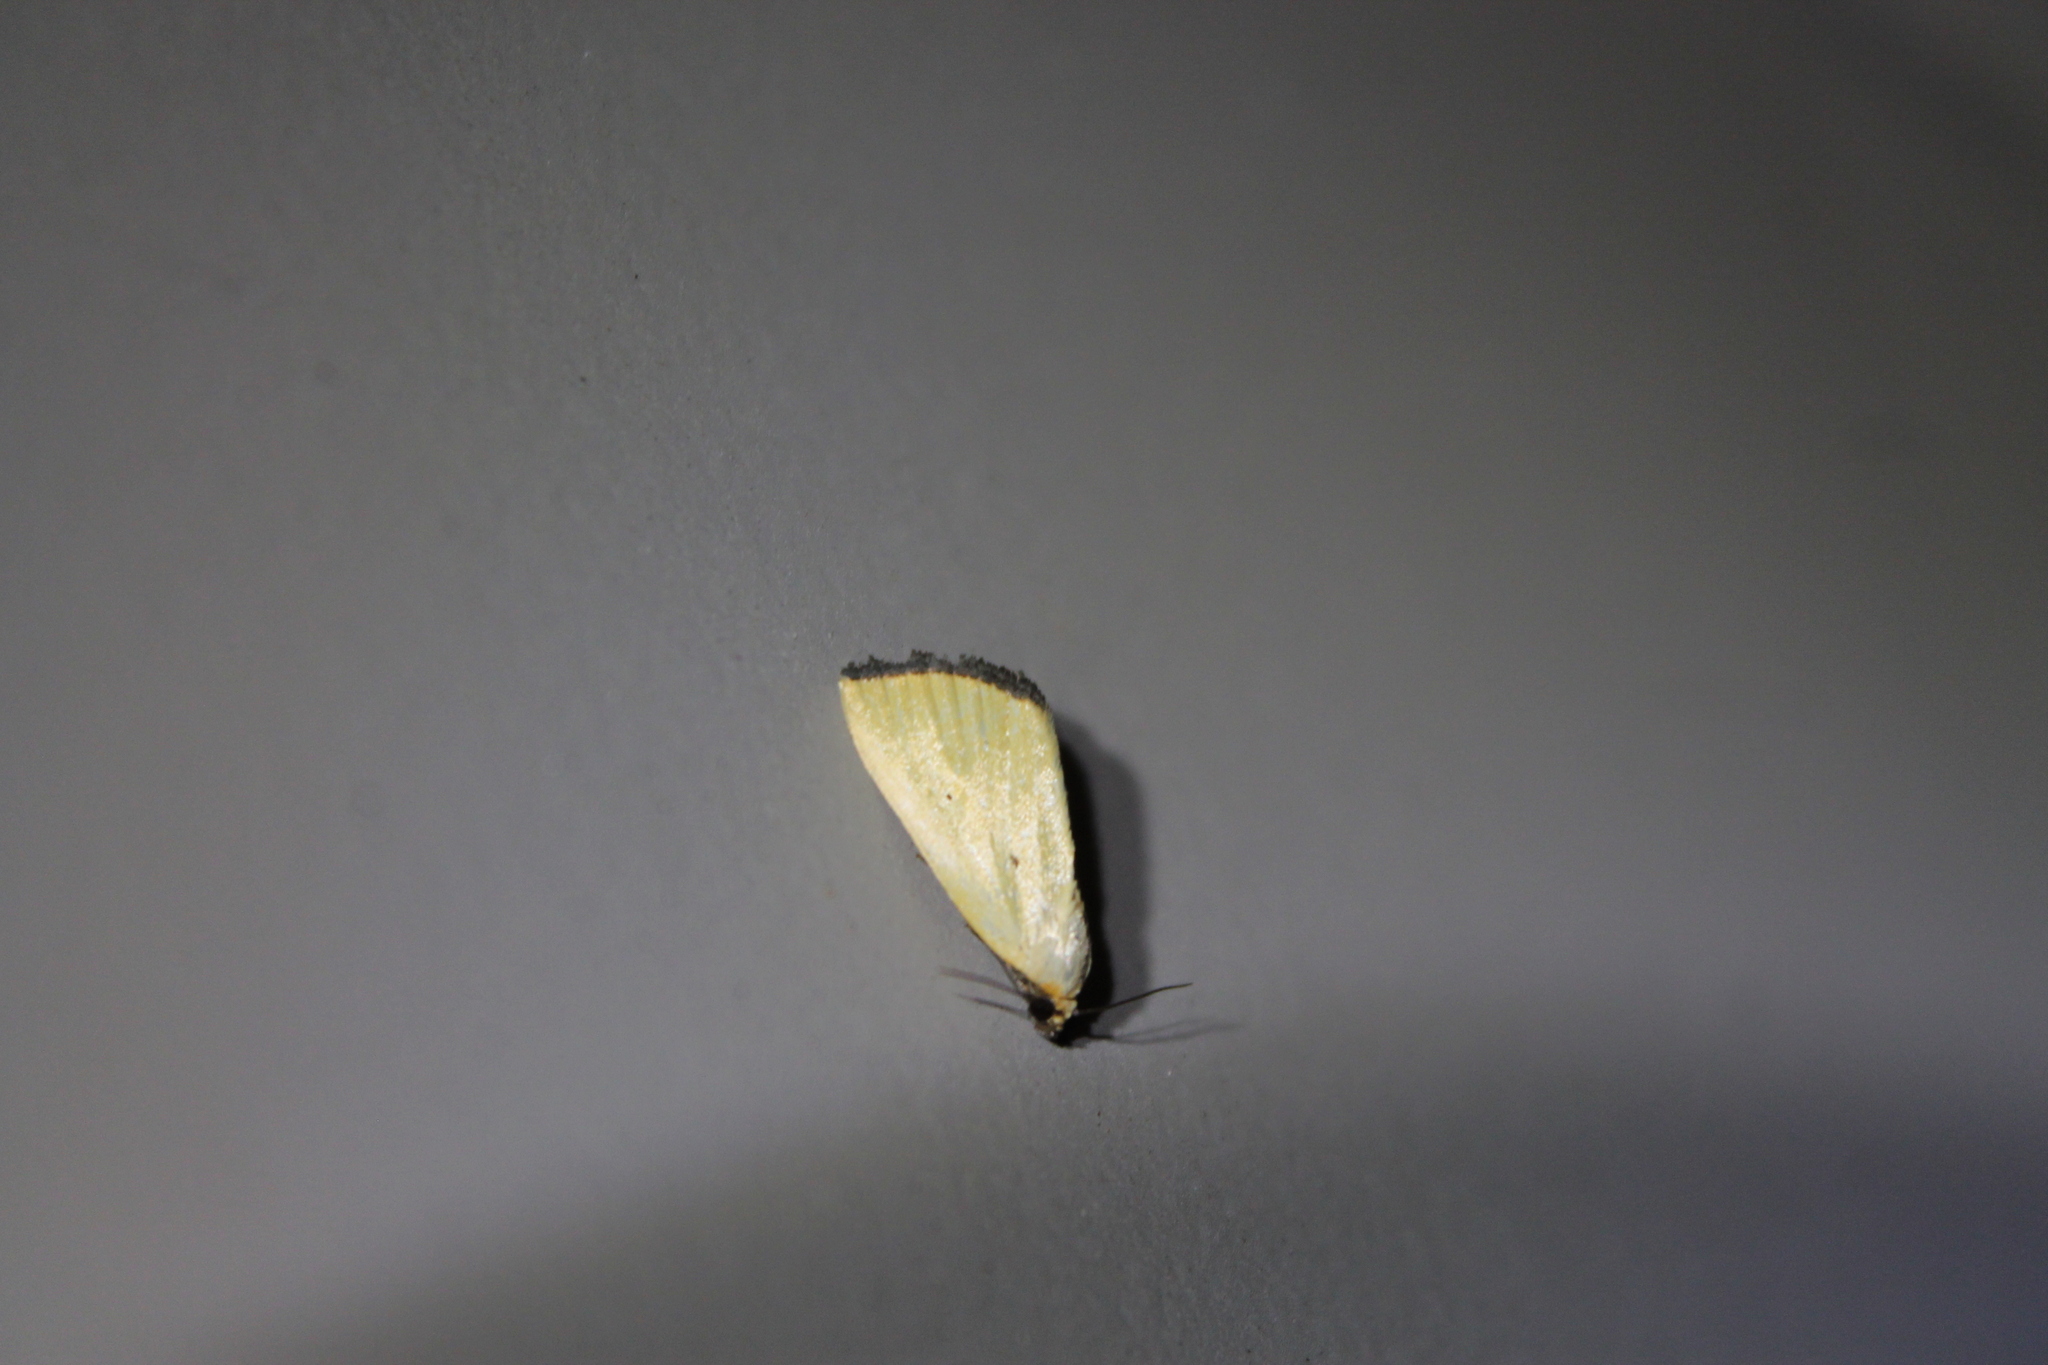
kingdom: Animalia
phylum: Arthropoda
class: Insecta
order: Lepidoptera
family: Noctuidae
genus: Marimatha
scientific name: Marimatha nigrofimbria
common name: Black-bordered lemon moth
